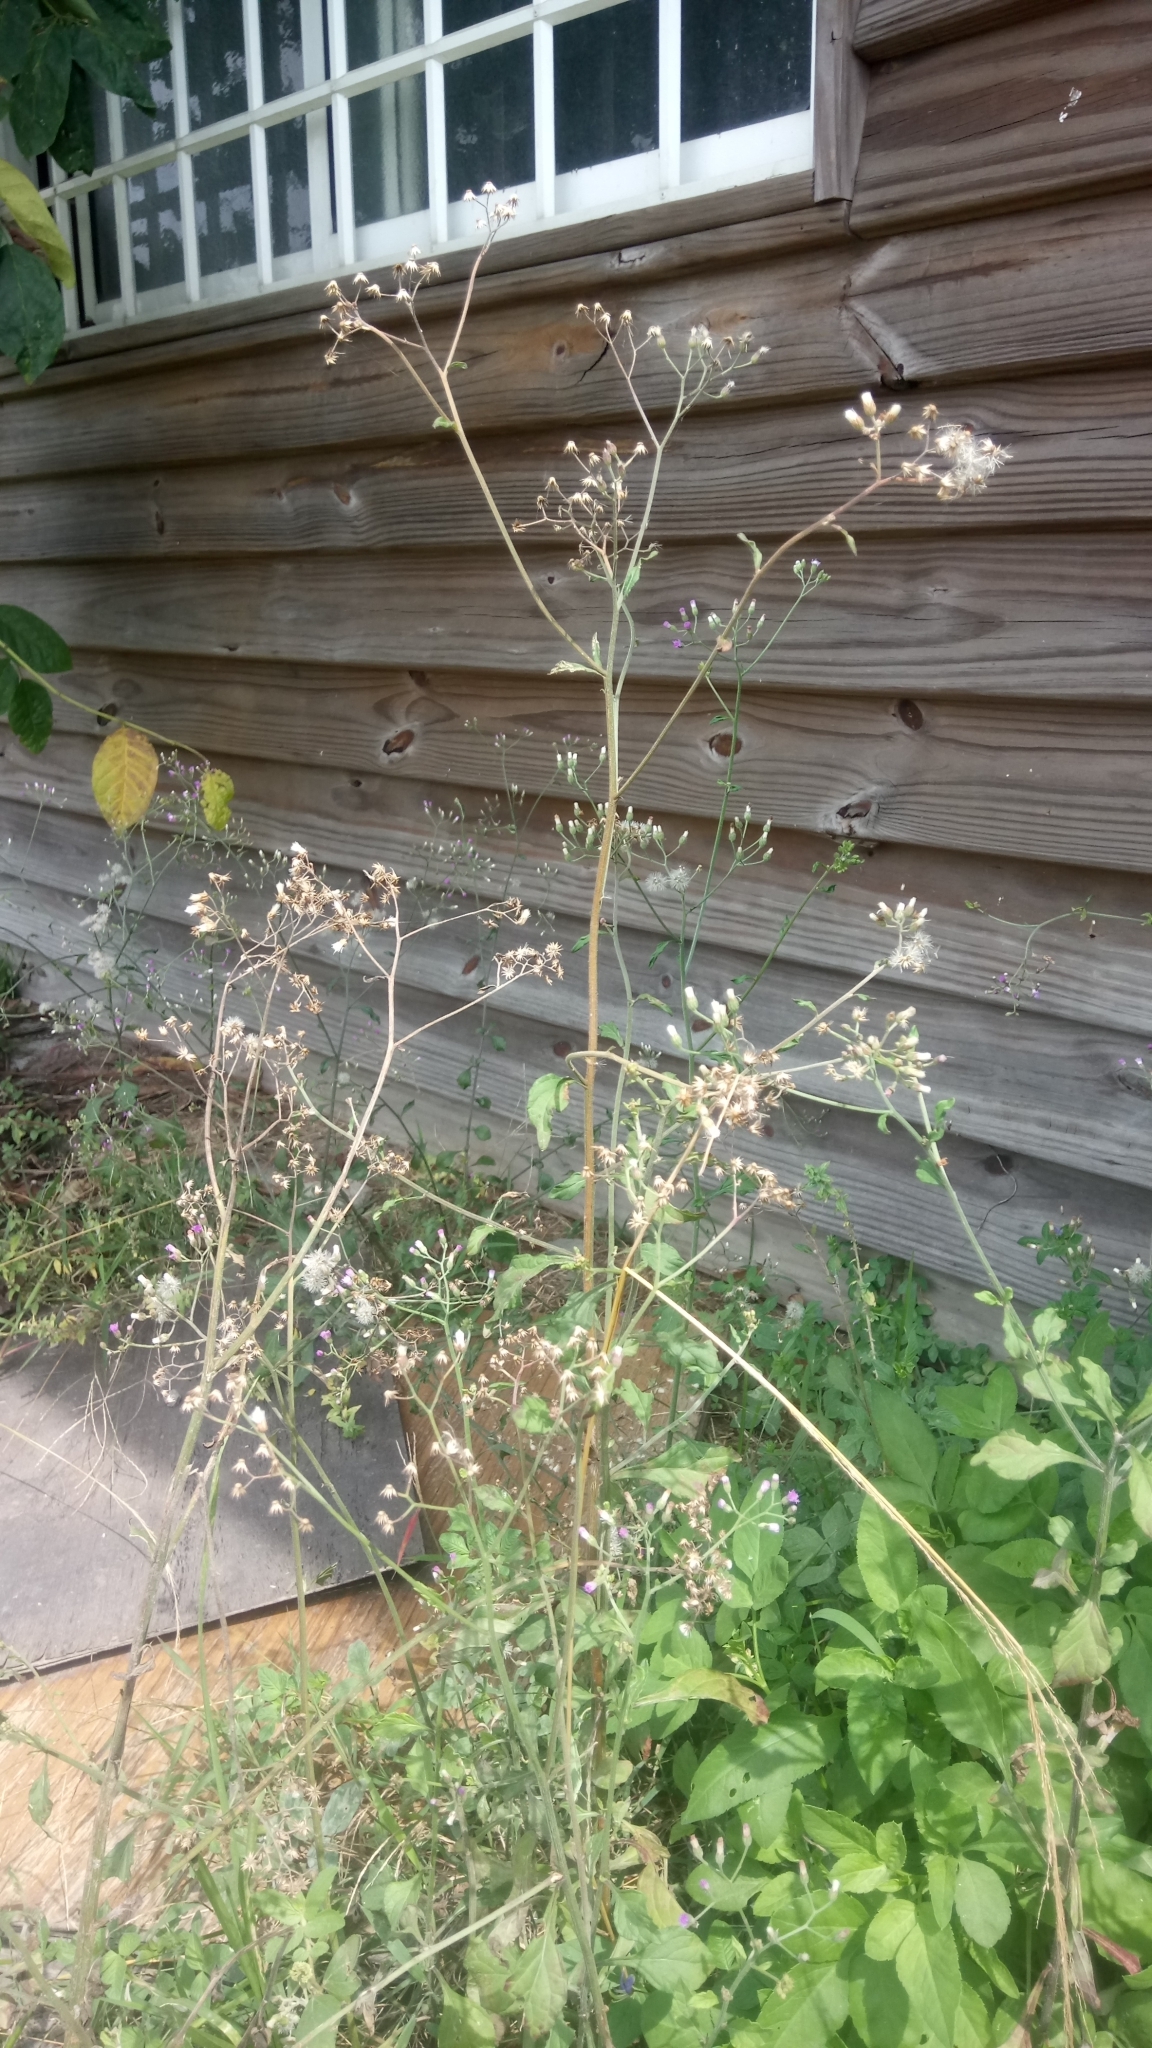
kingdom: Plantae
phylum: Tracheophyta
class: Magnoliopsida
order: Asterales
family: Asteraceae
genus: Cyanthillium
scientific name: Cyanthillium cinereum
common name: Little ironweed
